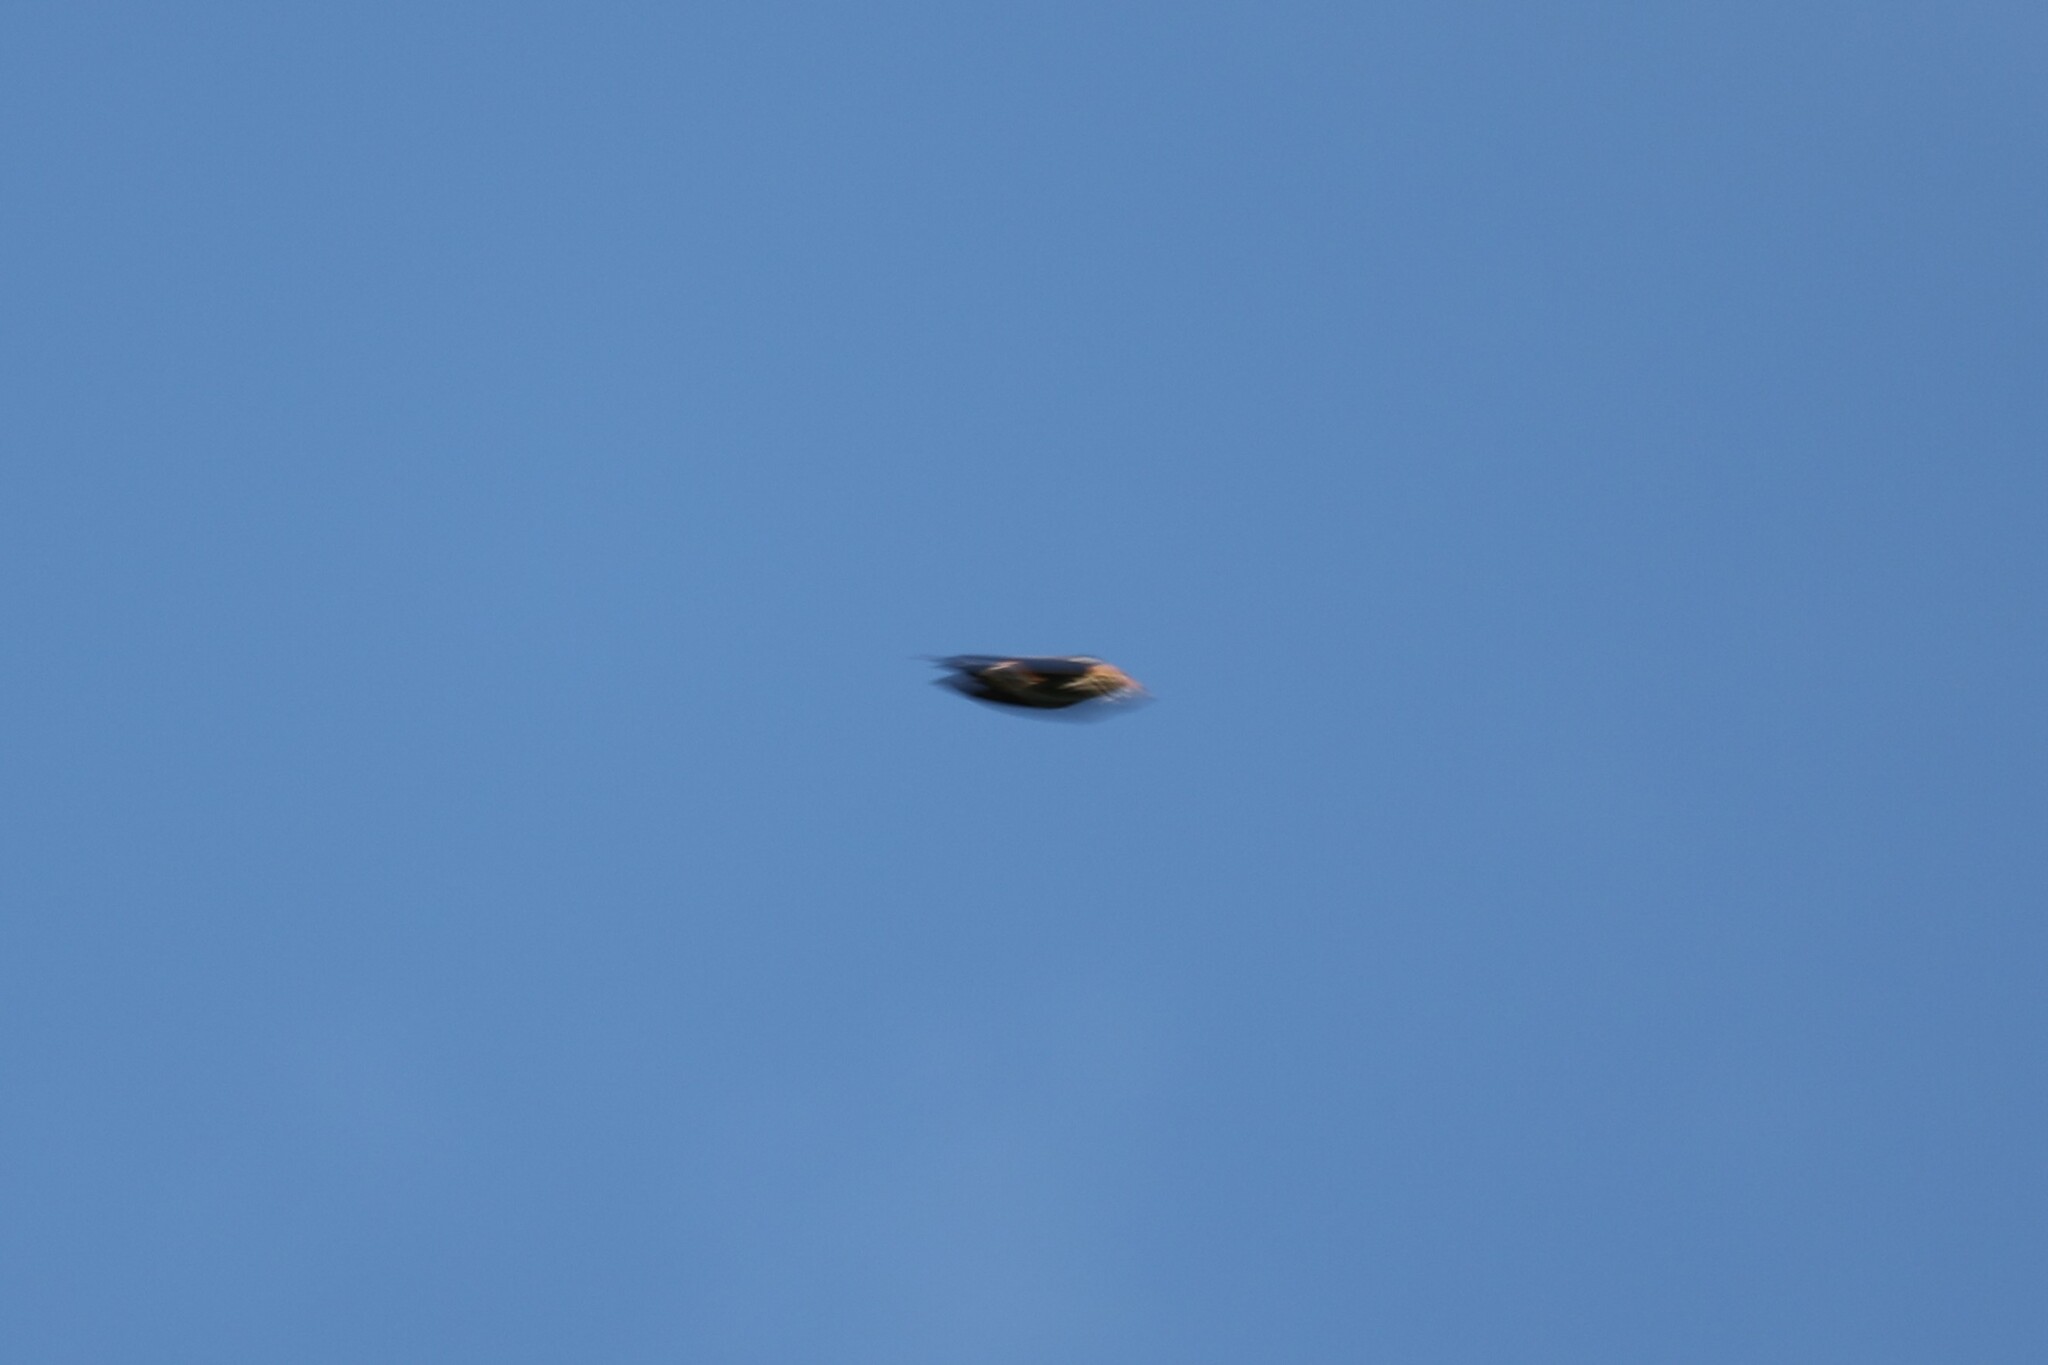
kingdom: Animalia
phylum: Chordata
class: Aves
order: Passeriformes
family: Hirundinidae
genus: Cecropis
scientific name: Cecropis abyssinica
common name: Lesser striped-swallow
